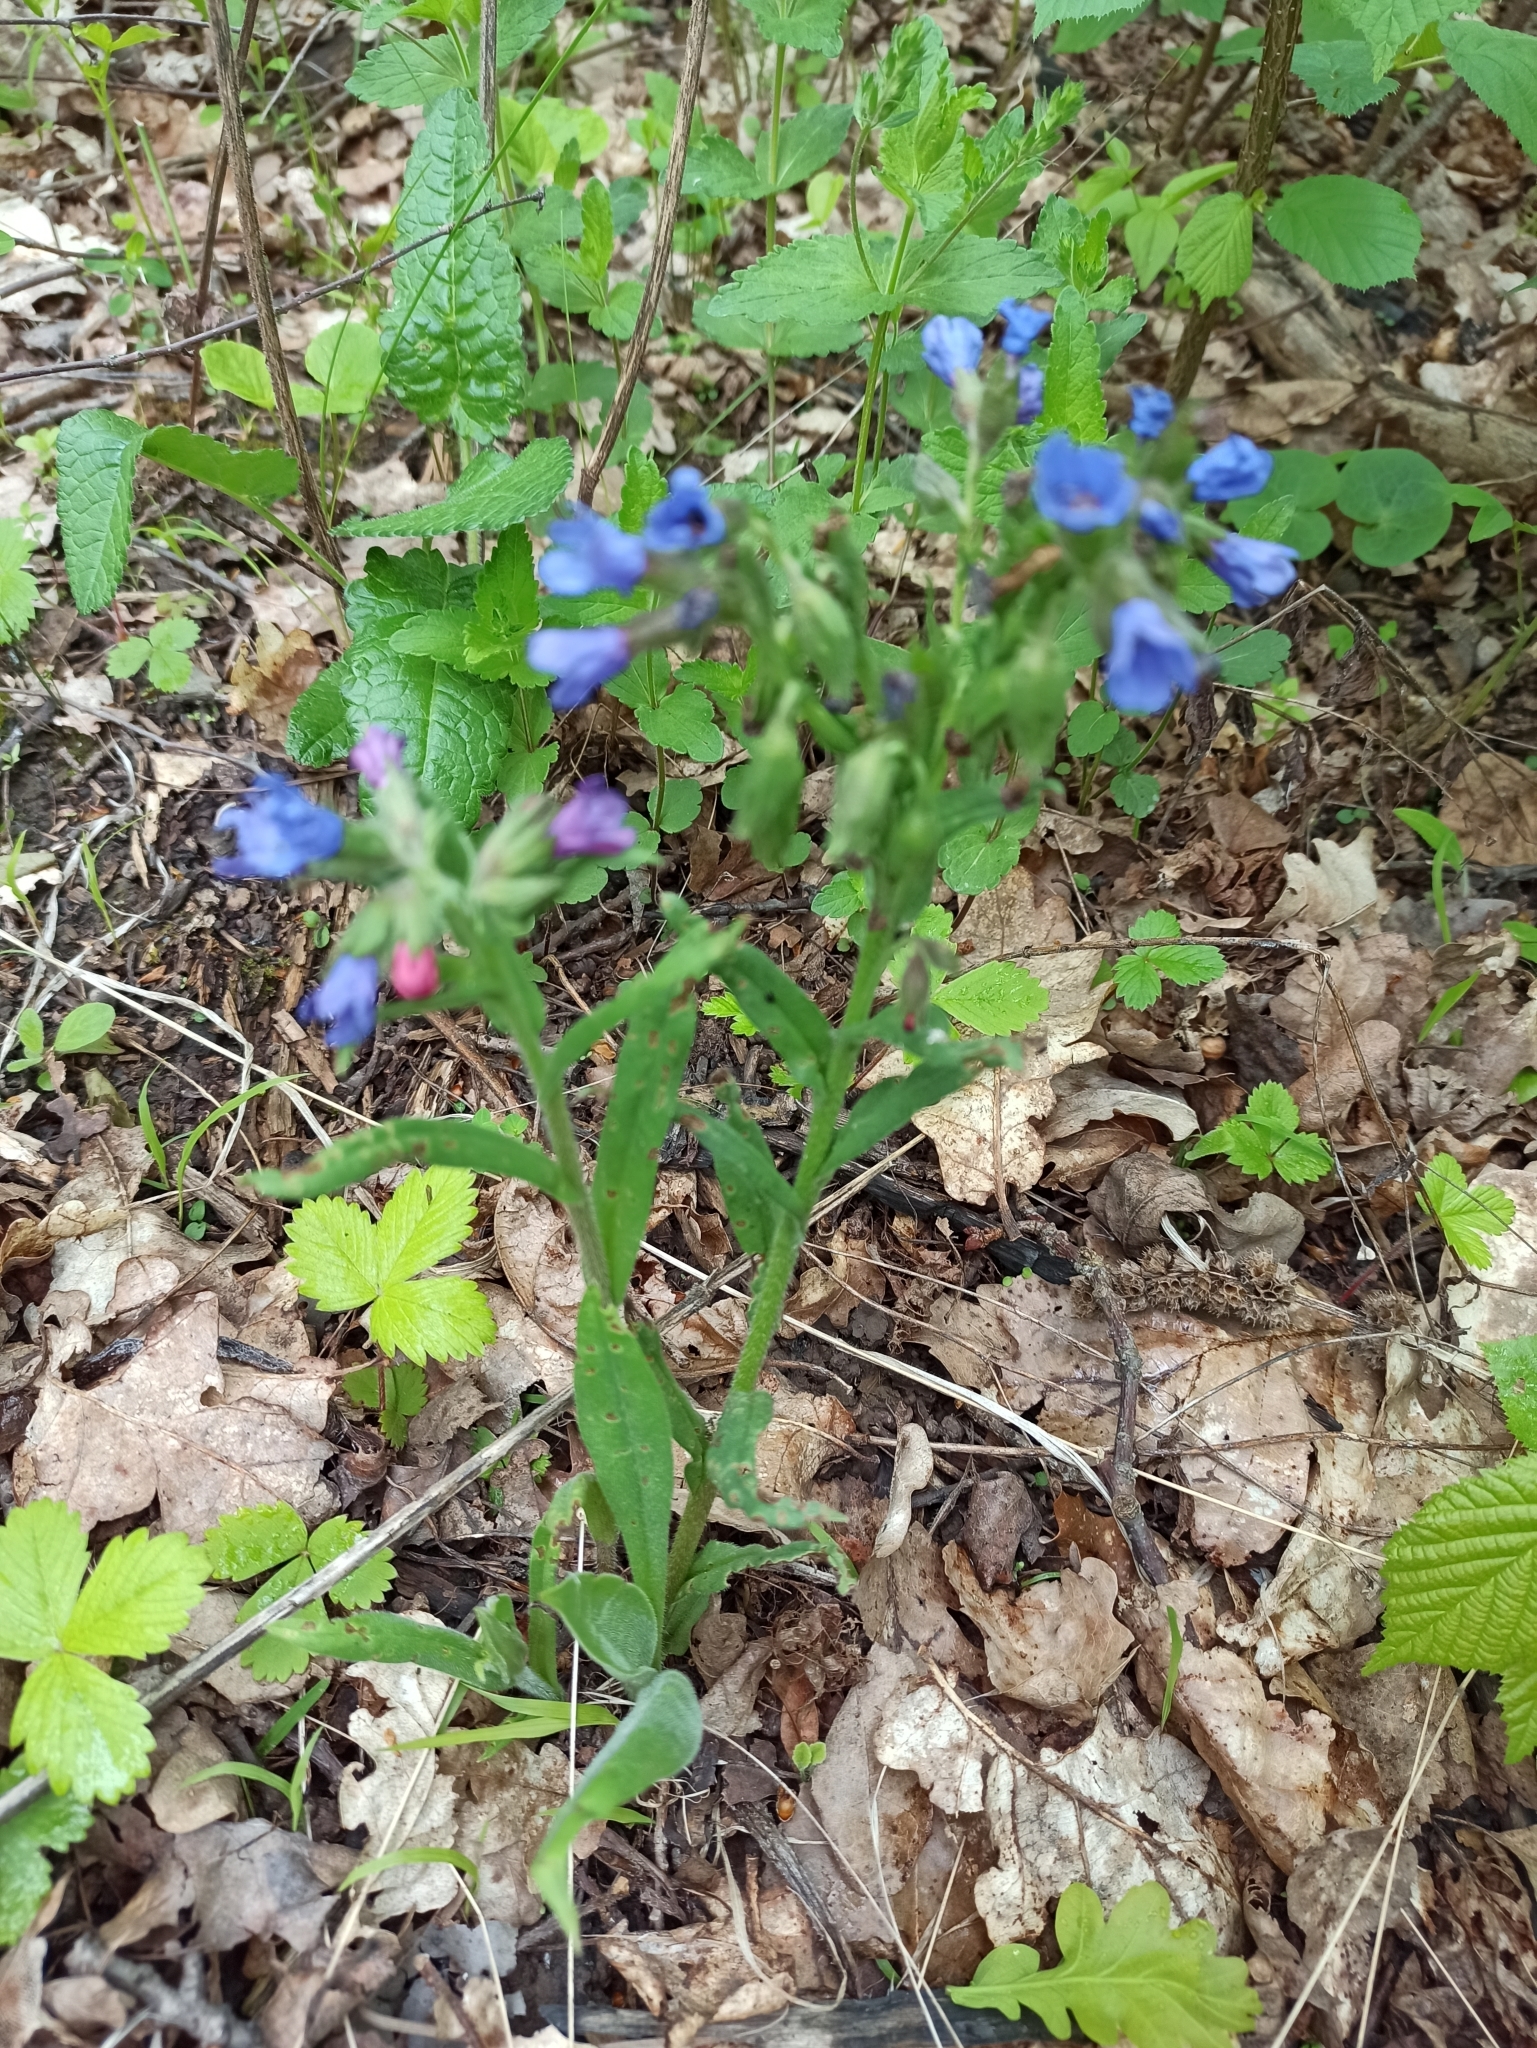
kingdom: Plantae
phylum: Tracheophyta
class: Magnoliopsida
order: Boraginales
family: Boraginaceae
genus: Pulmonaria
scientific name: Pulmonaria angustifolia
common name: Blue cowslip
